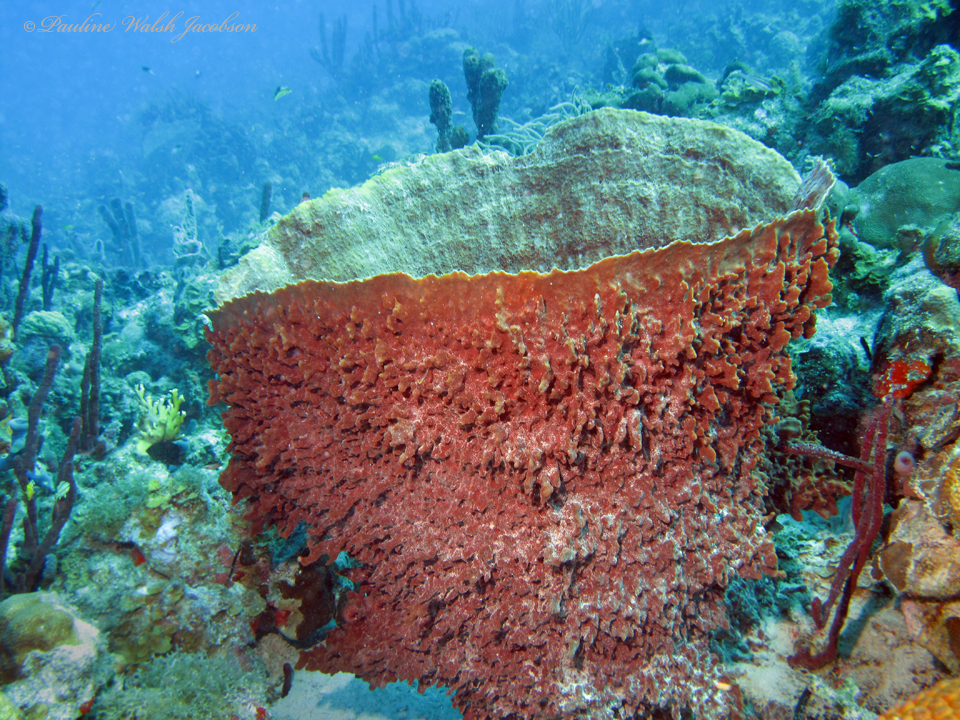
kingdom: Animalia
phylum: Porifera
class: Demospongiae
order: Haplosclerida
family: Petrosiidae
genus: Xestospongia
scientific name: Xestospongia muta
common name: Giant barrel sponge
